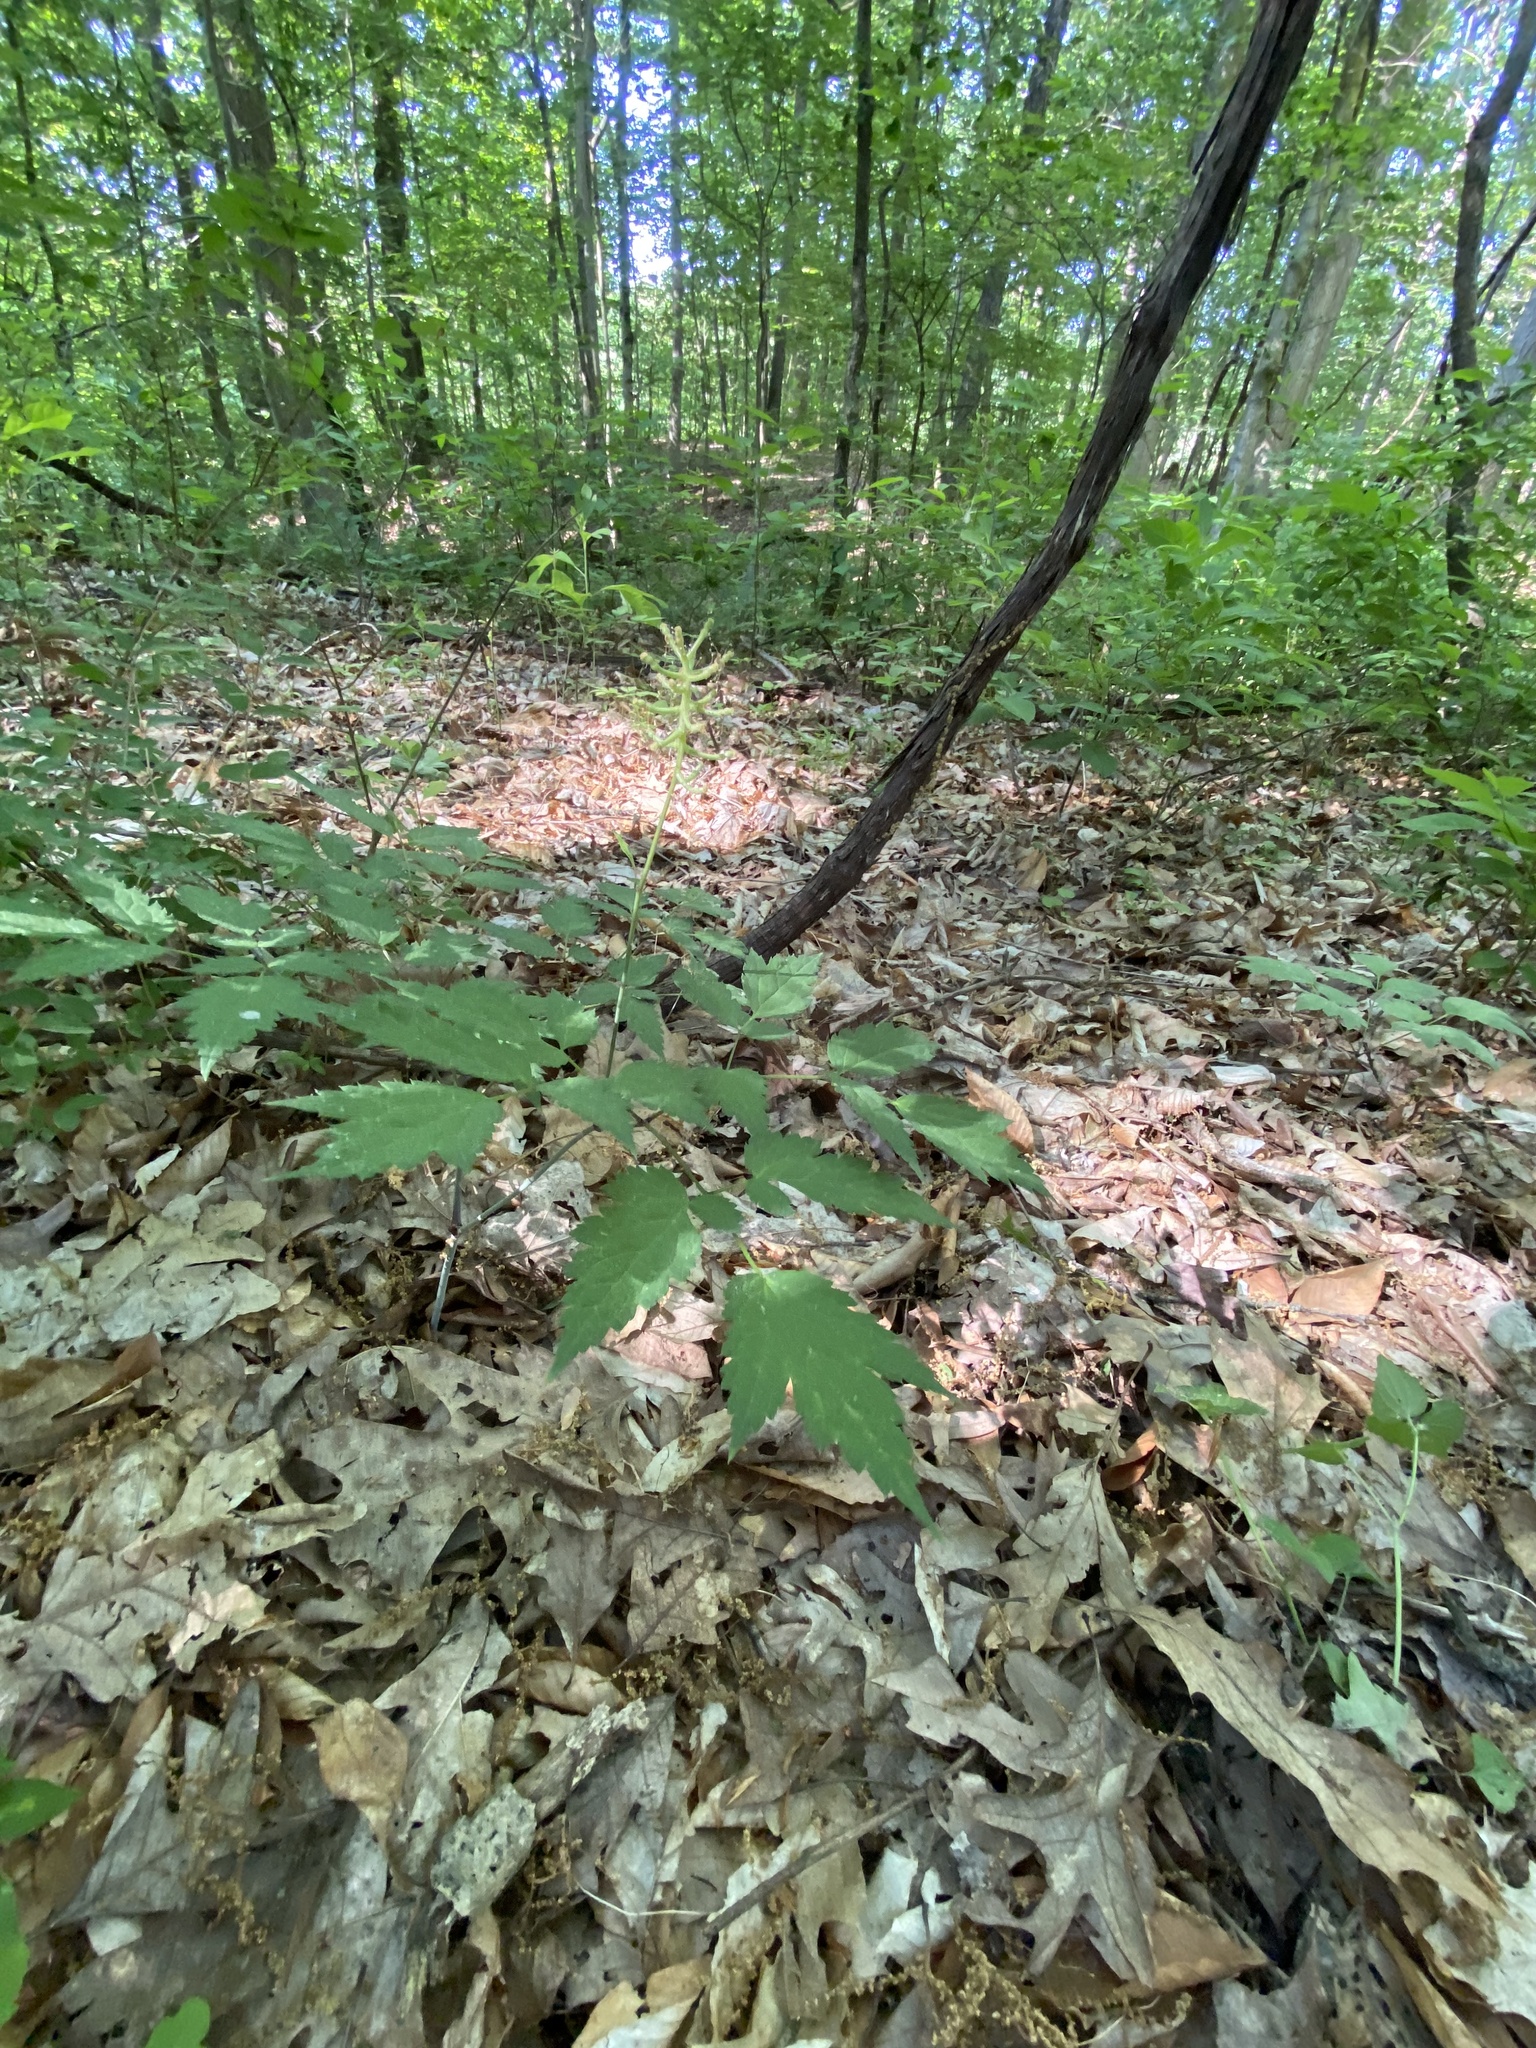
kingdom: Plantae
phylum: Tracheophyta
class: Magnoliopsida
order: Ranunculales
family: Ranunculaceae
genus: Actaea
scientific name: Actaea pachypoda
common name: Doll's-eyes
